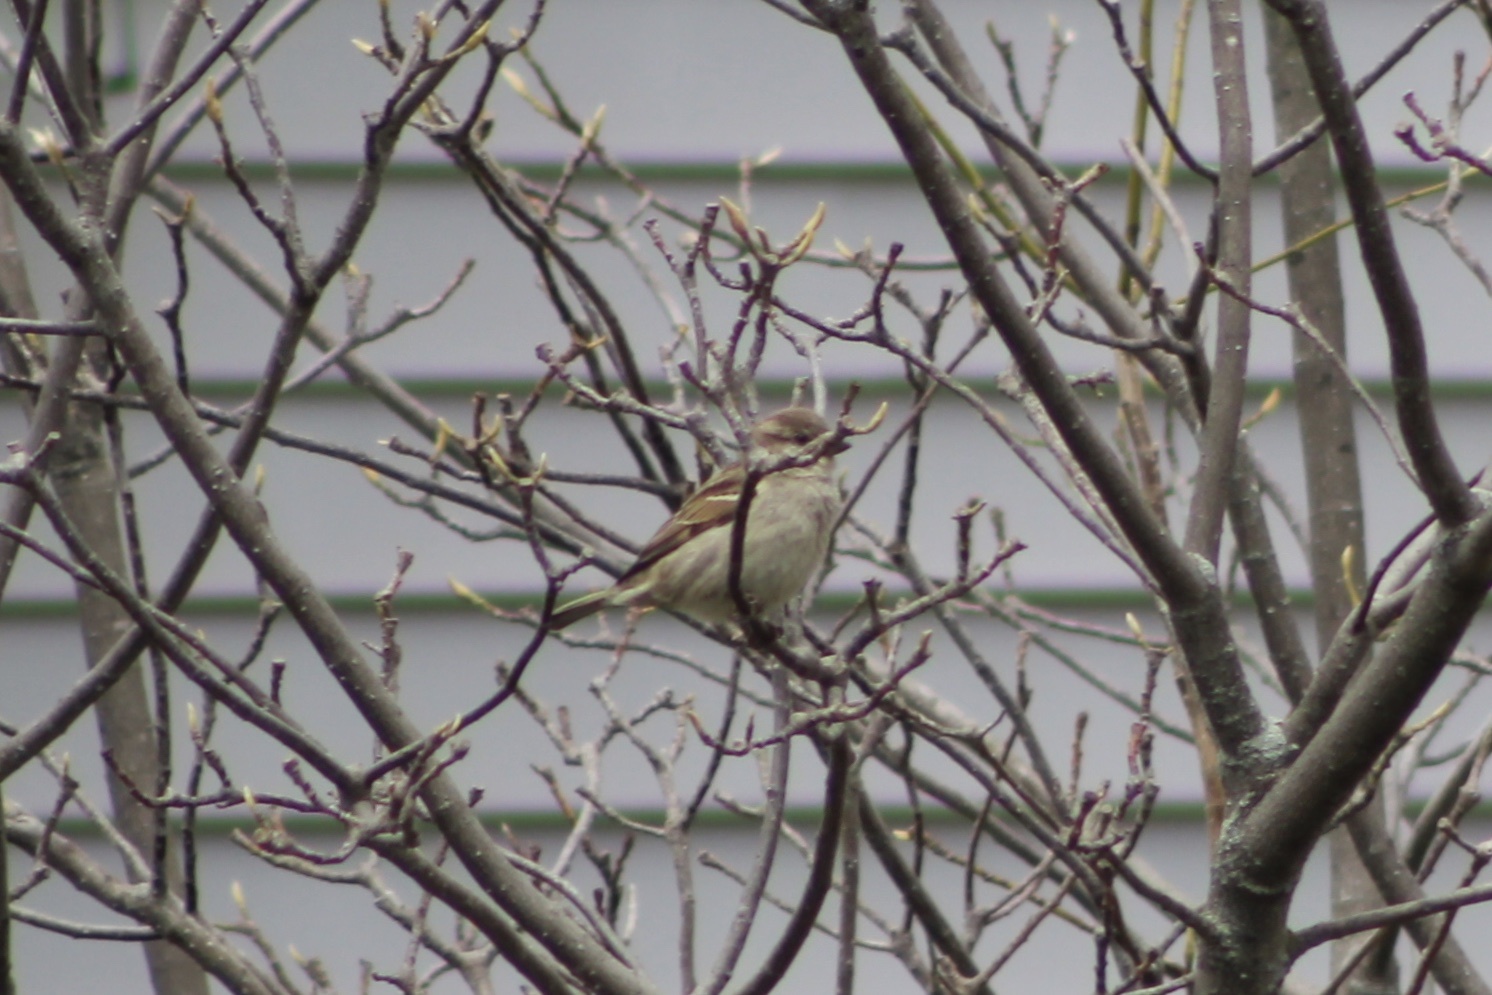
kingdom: Animalia
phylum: Chordata
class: Aves
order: Passeriformes
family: Passeridae
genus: Passer
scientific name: Passer domesticus
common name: House sparrow
